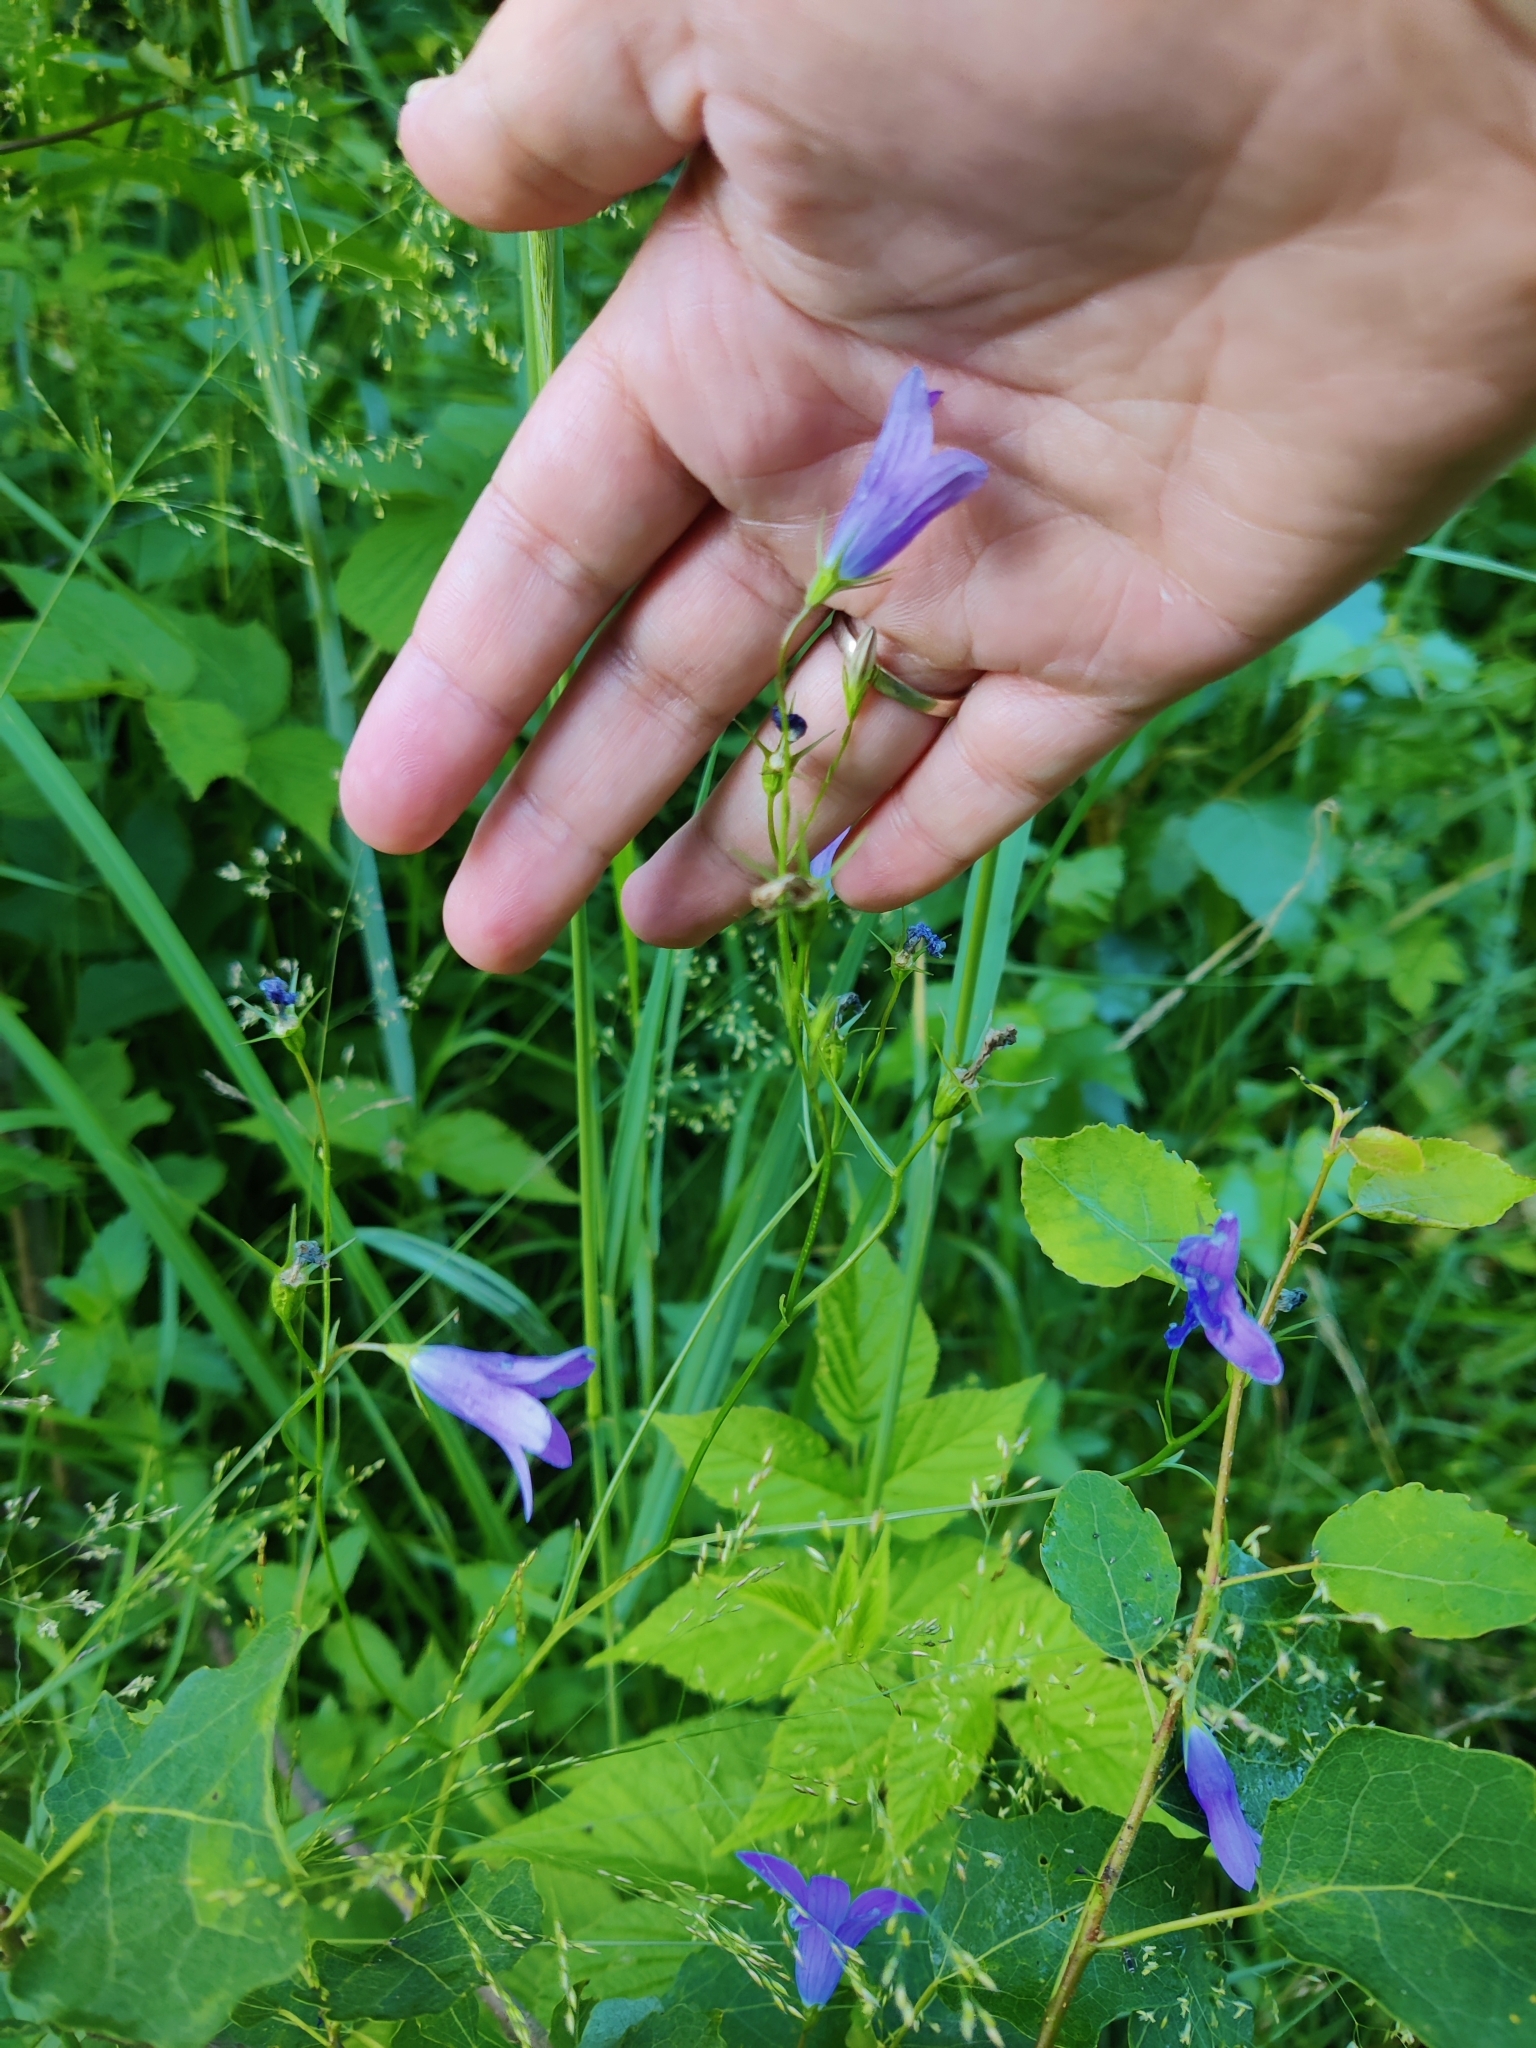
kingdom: Plantae
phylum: Tracheophyta
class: Magnoliopsida
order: Asterales
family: Campanulaceae
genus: Campanula
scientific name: Campanula patula
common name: Spreading bellflower
